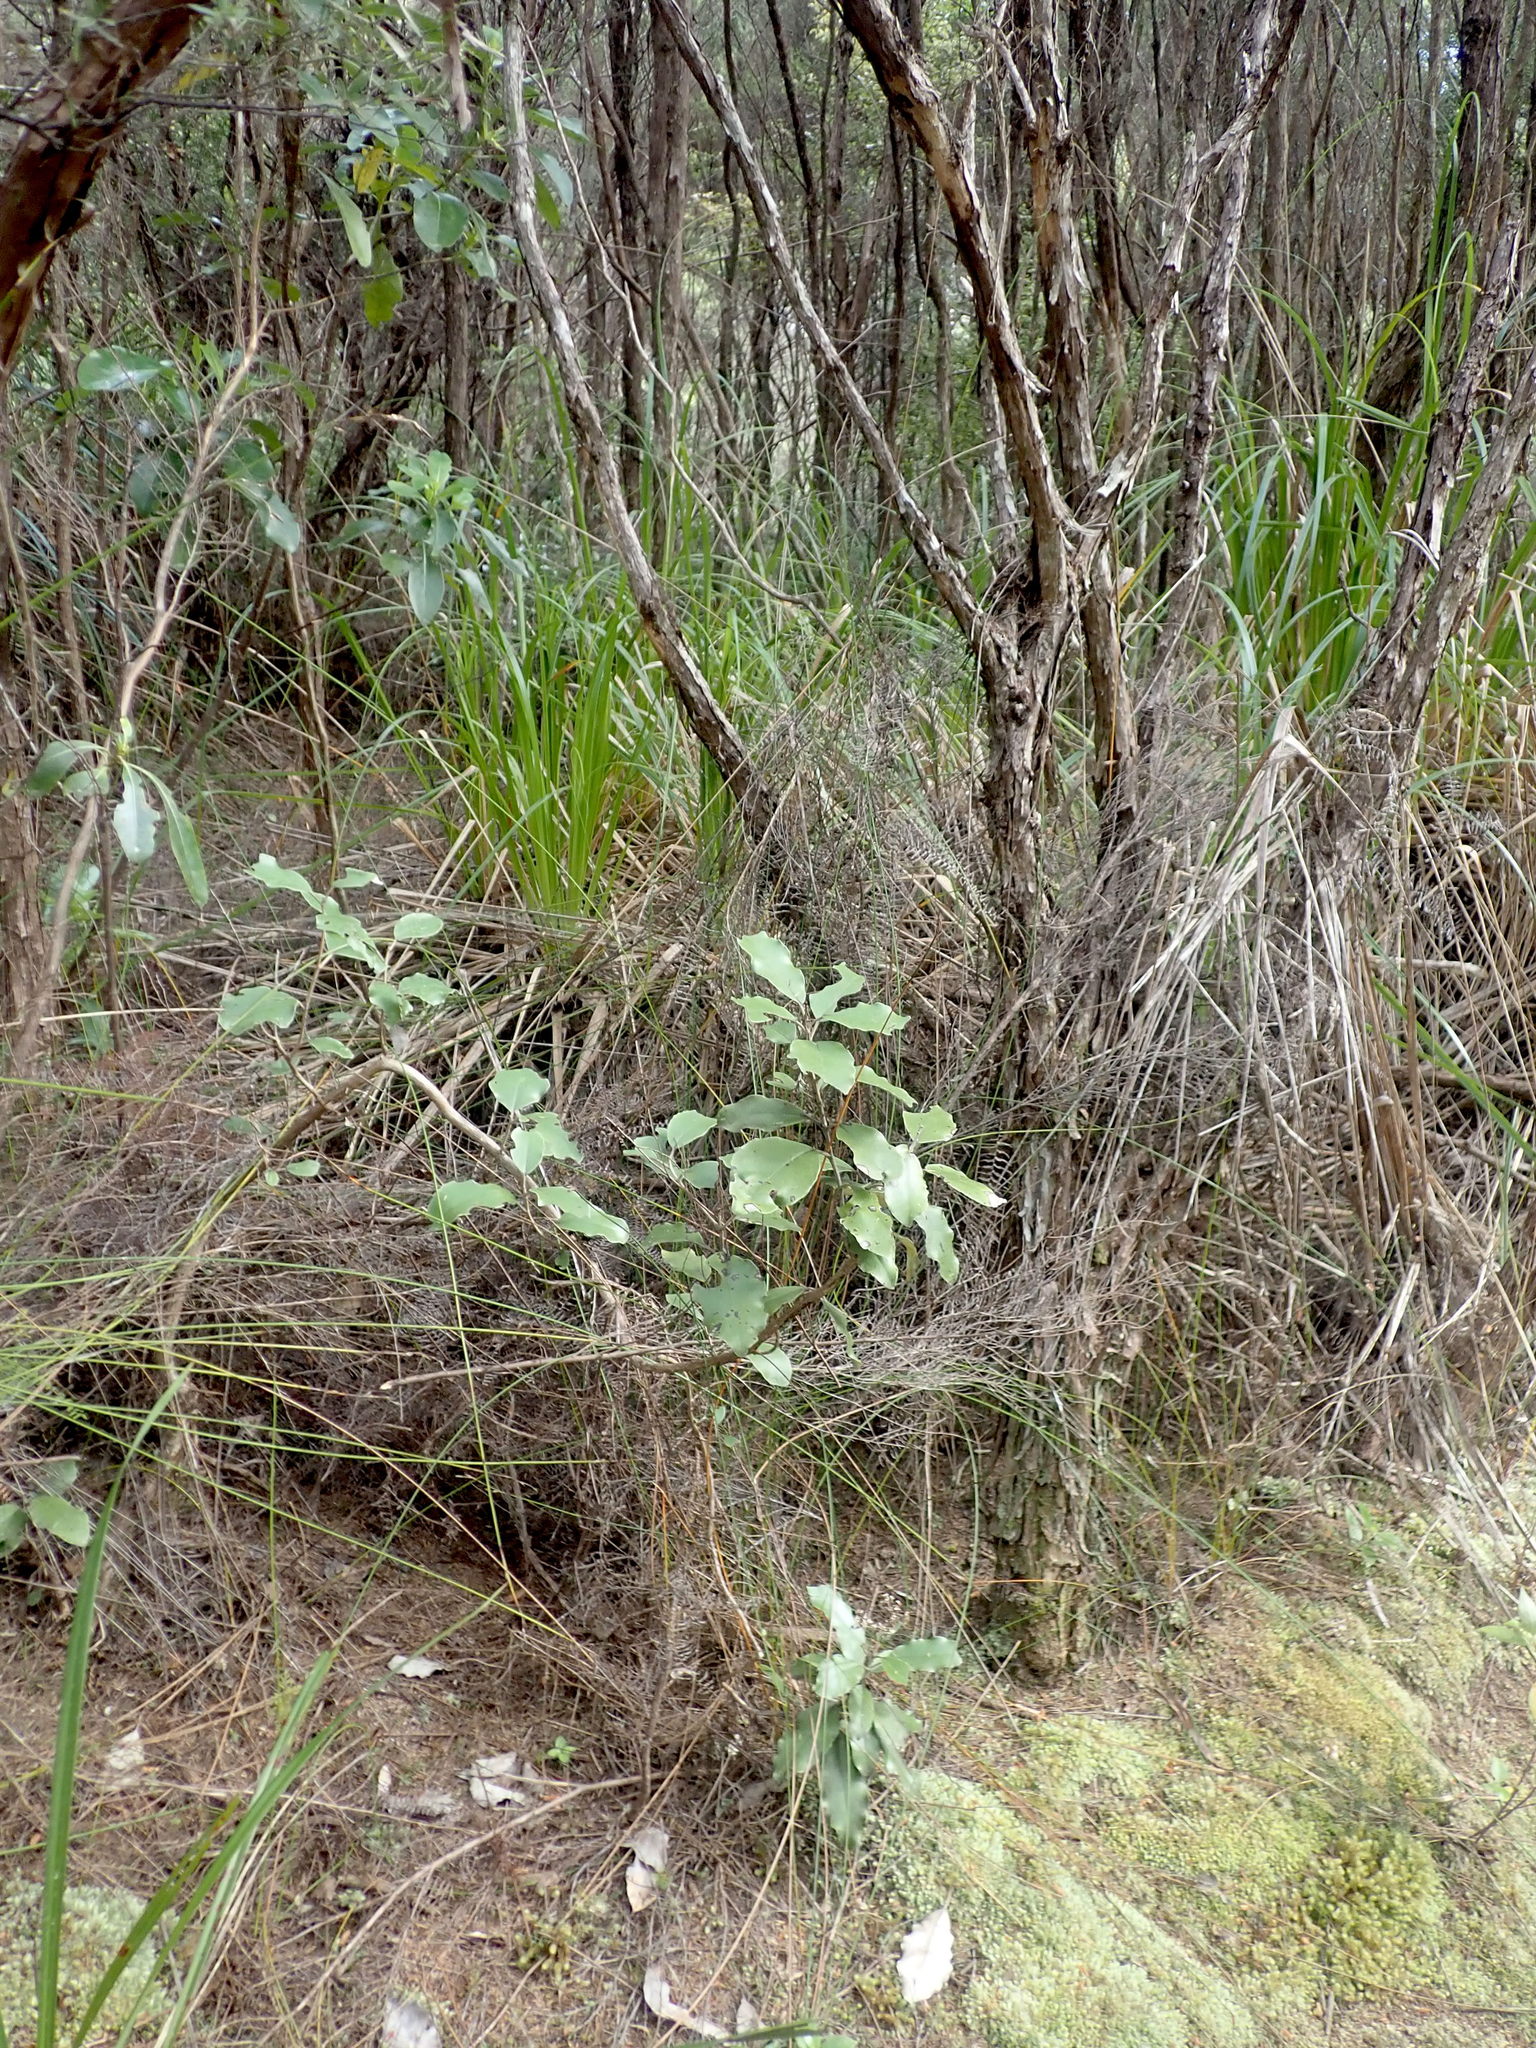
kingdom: Plantae
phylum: Tracheophyta
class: Magnoliopsida
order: Asterales
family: Asteraceae
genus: Olearia
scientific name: Olearia furfuracea
